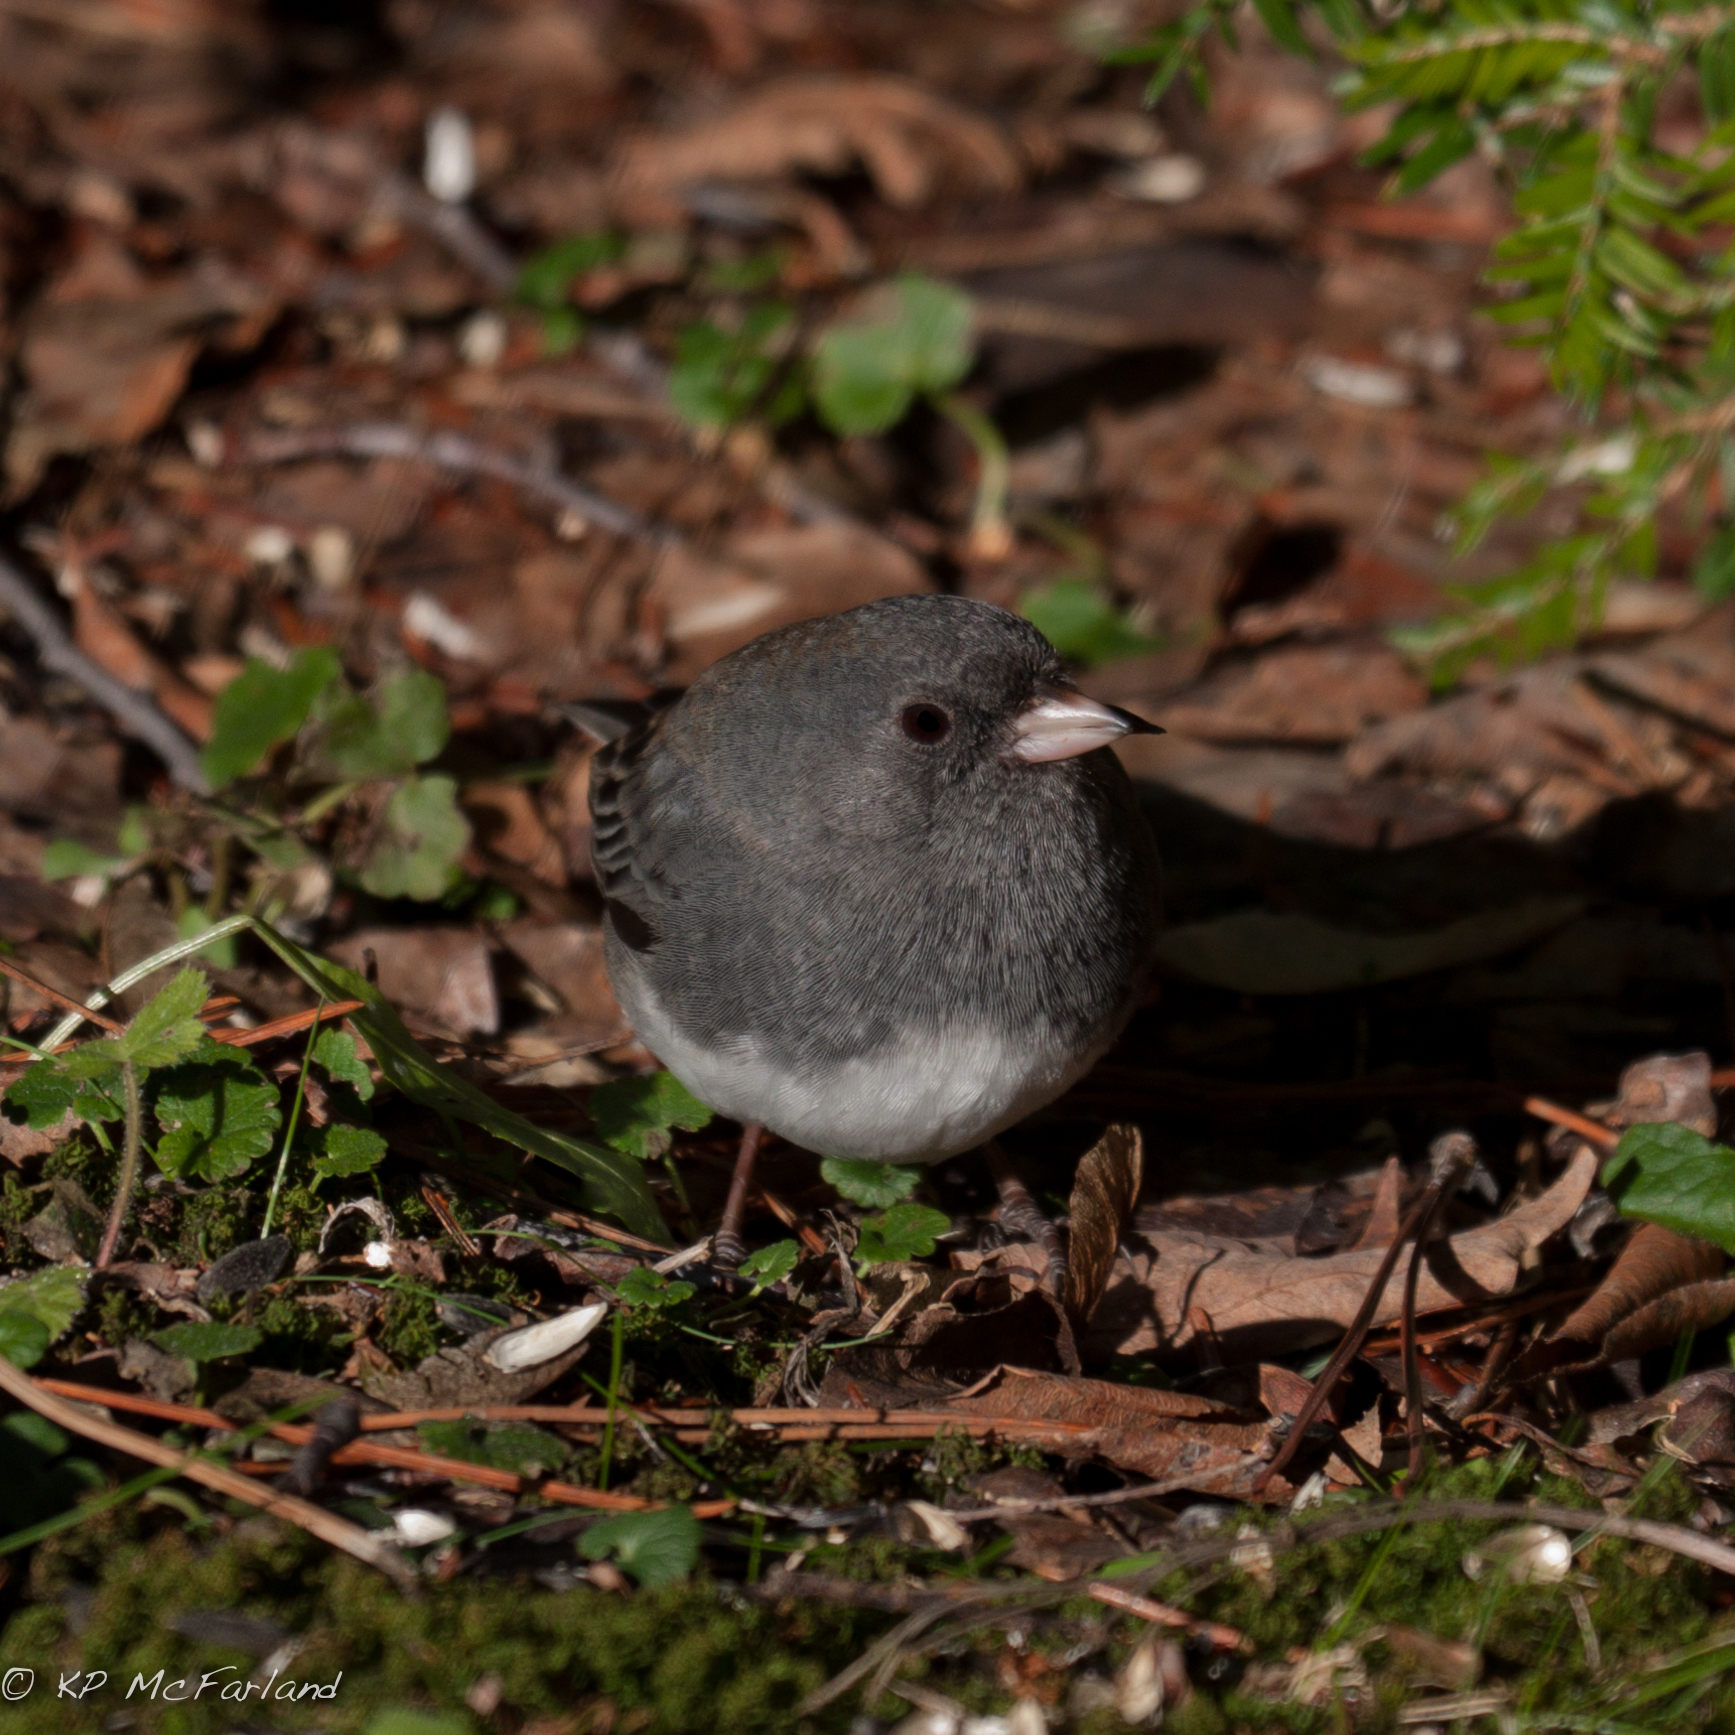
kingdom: Animalia
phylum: Chordata
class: Aves
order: Passeriformes
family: Passerellidae
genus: Junco
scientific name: Junco hyemalis
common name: Dark-eyed junco
